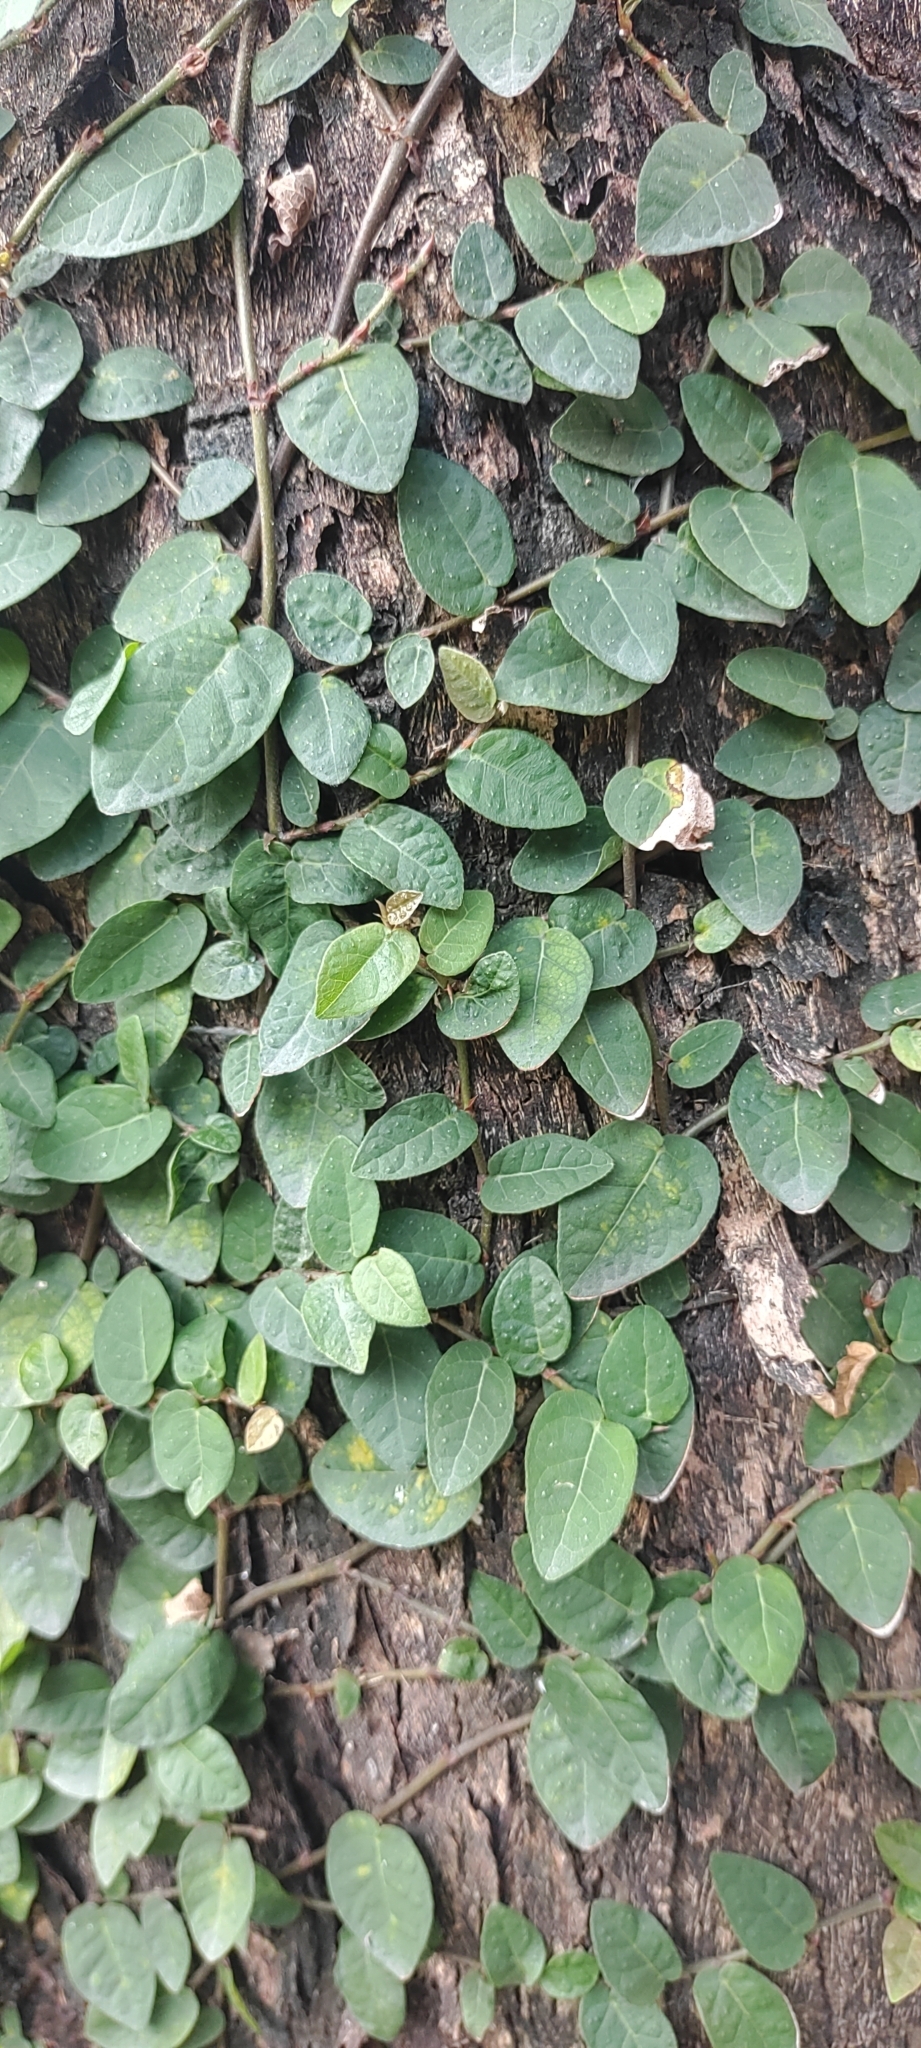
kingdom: Plantae
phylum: Tracheophyta
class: Magnoliopsida
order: Rosales
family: Moraceae
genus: Ficus
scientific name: Ficus pumila
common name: Climbingfig
